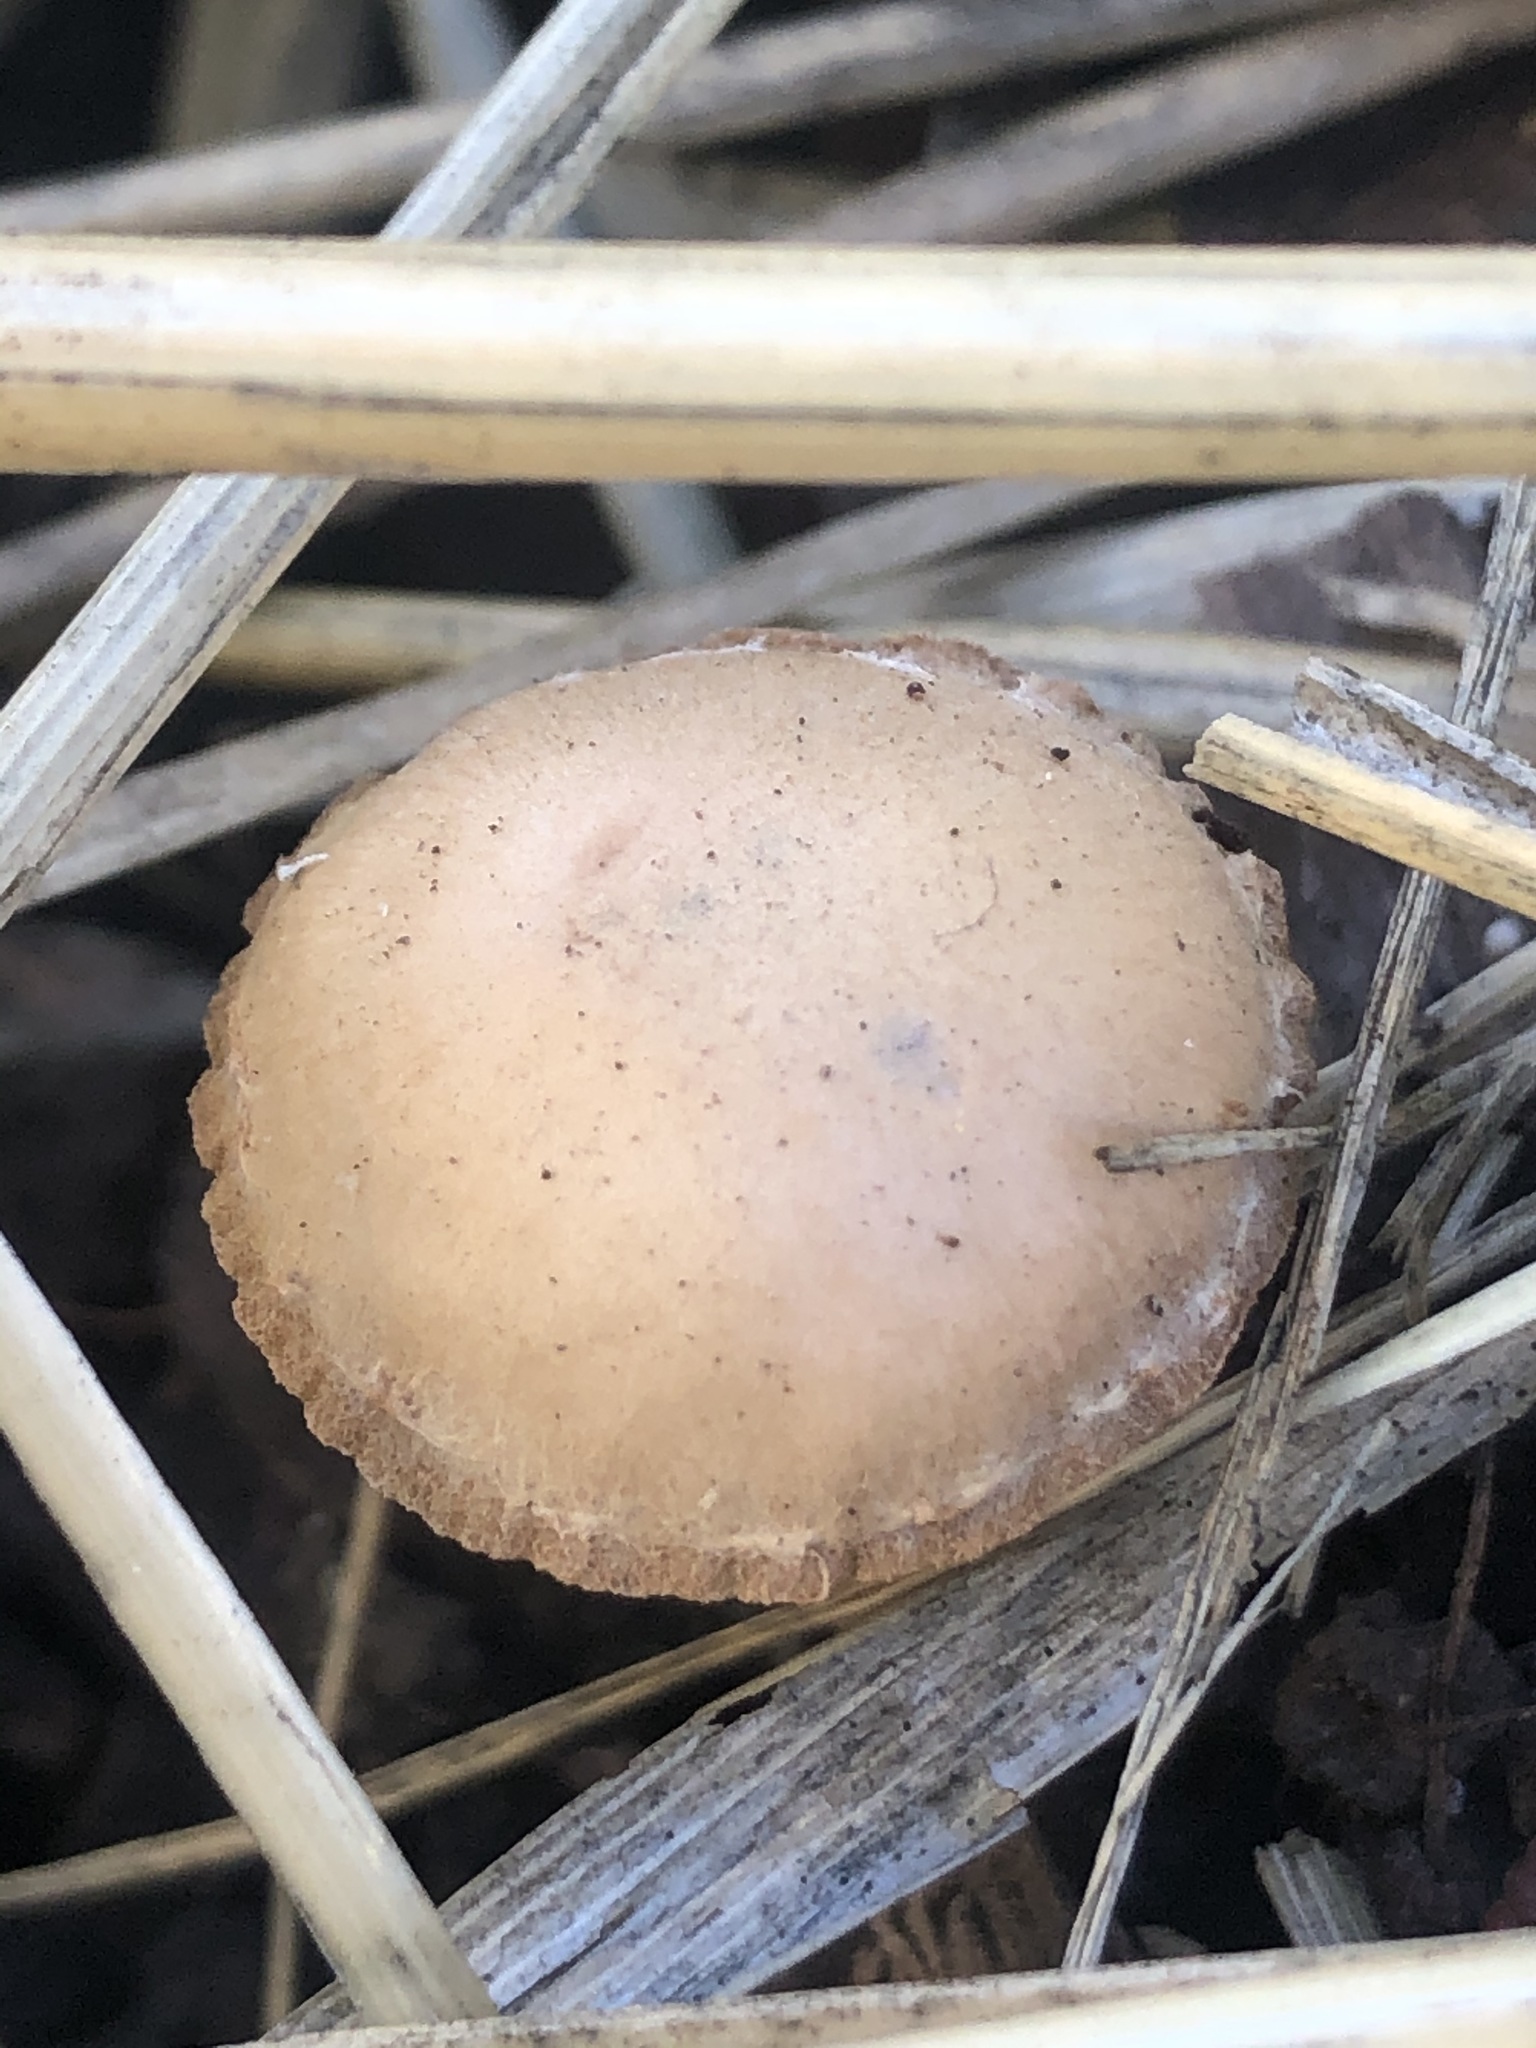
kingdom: Fungi
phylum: Basidiomycota
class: Agaricomycetes
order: Agaricales
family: Tubariaceae
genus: Tubaria
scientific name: Tubaria furfuracea
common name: Scurfy twiglet
